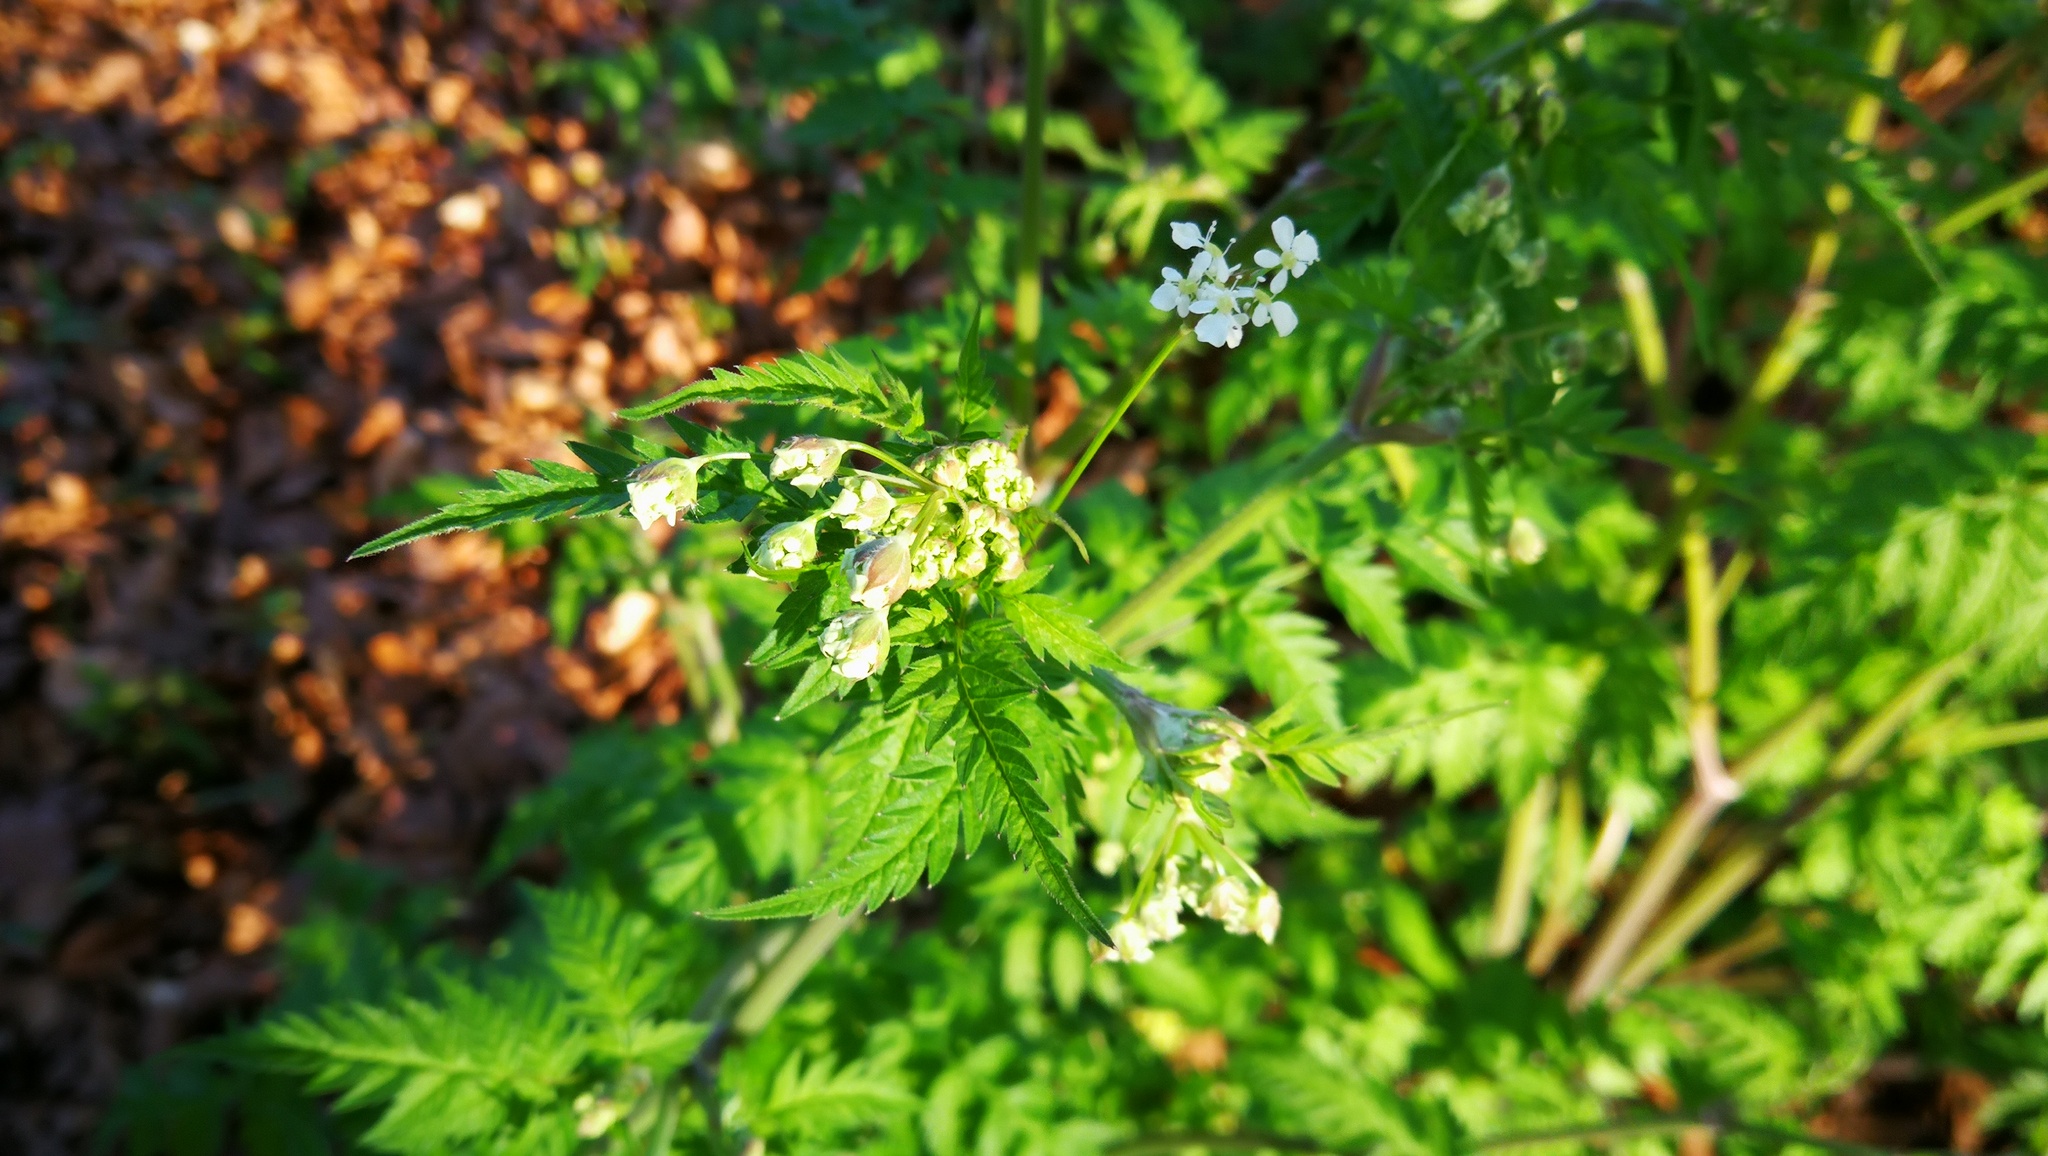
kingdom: Plantae
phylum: Tracheophyta
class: Magnoliopsida
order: Apiales
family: Apiaceae
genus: Anthriscus
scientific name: Anthriscus sylvestris
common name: Cow parsley
